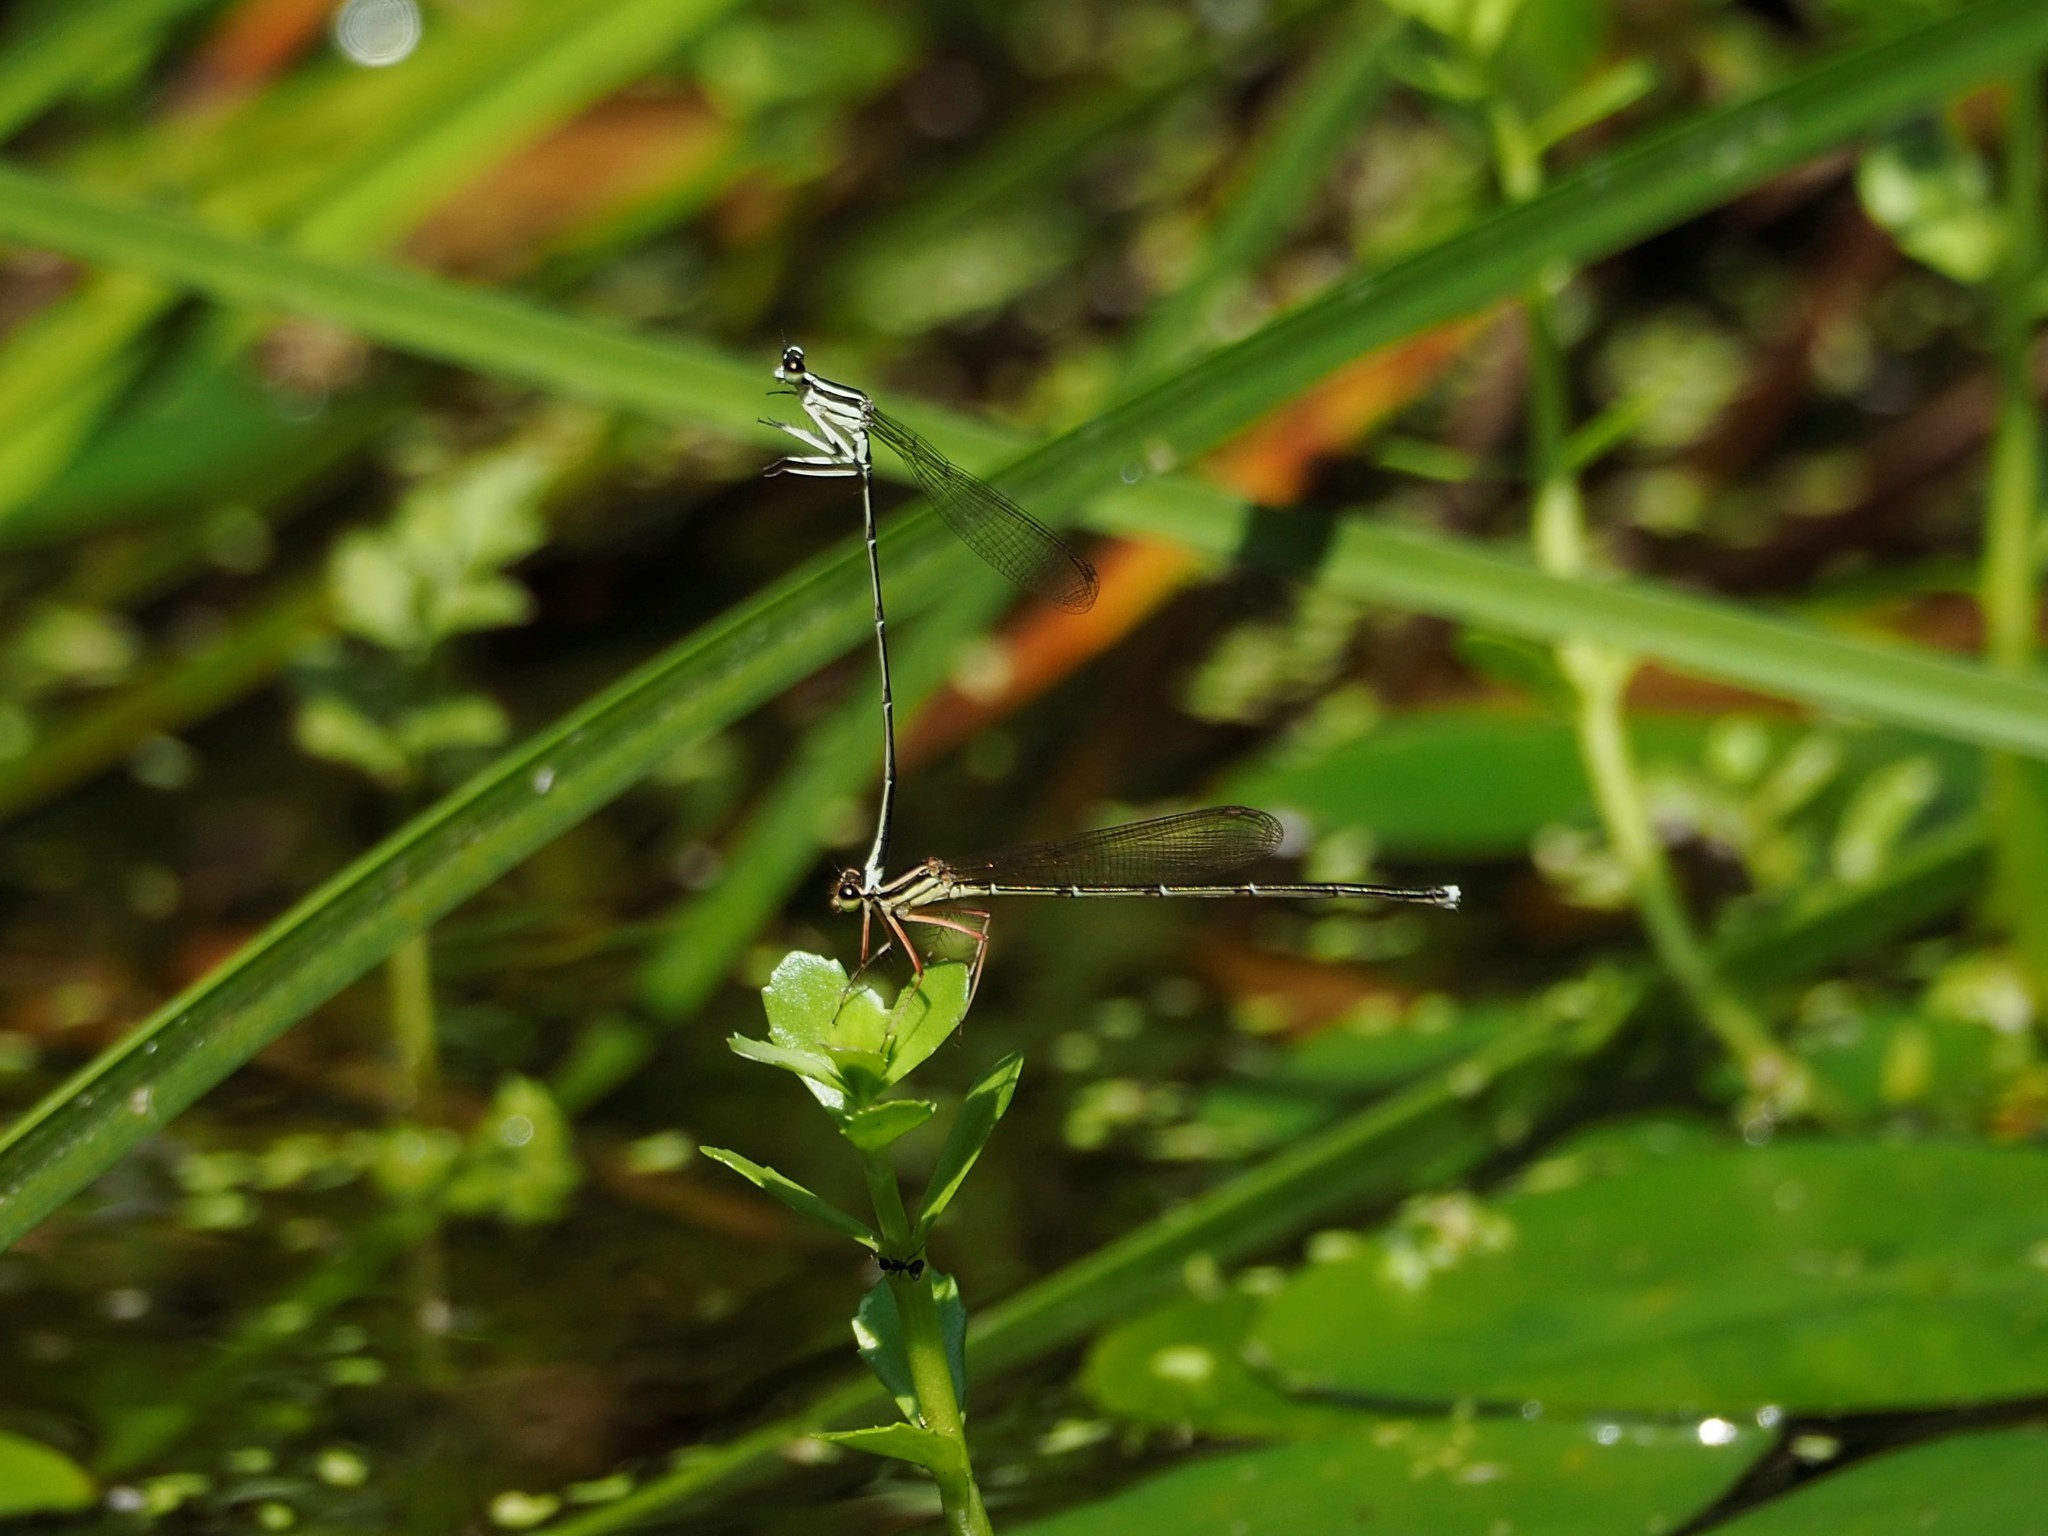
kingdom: Animalia
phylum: Arthropoda
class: Insecta
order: Odonata
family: Platycnemididae
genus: Pseudocopera
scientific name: Pseudocopera ciliata
